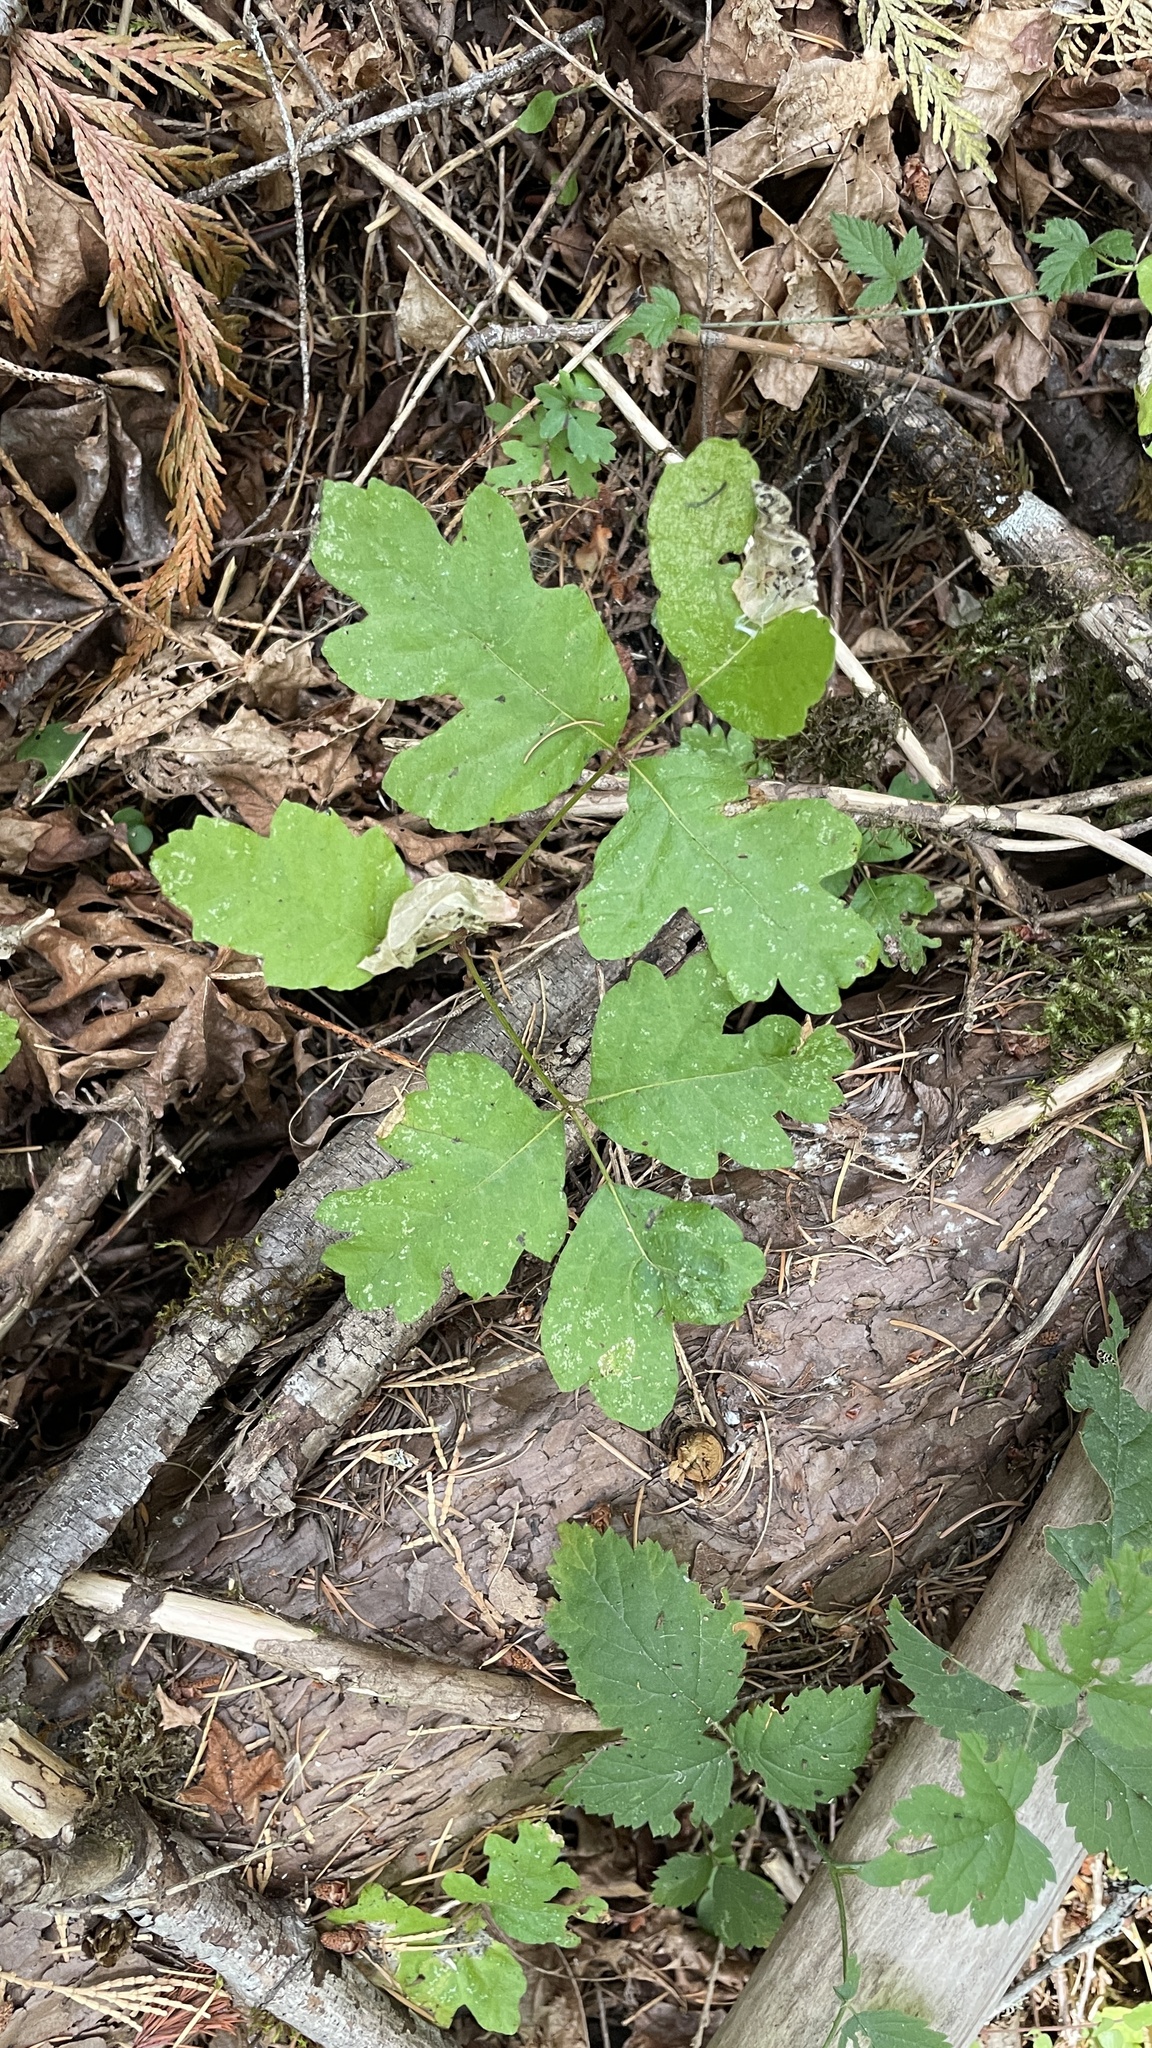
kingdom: Plantae
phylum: Tracheophyta
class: Magnoliopsida
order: Sapindales
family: Anacardiaceae
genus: Toxicodendron
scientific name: Toxicodendron diversilobum
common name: Pacific poison-oak
